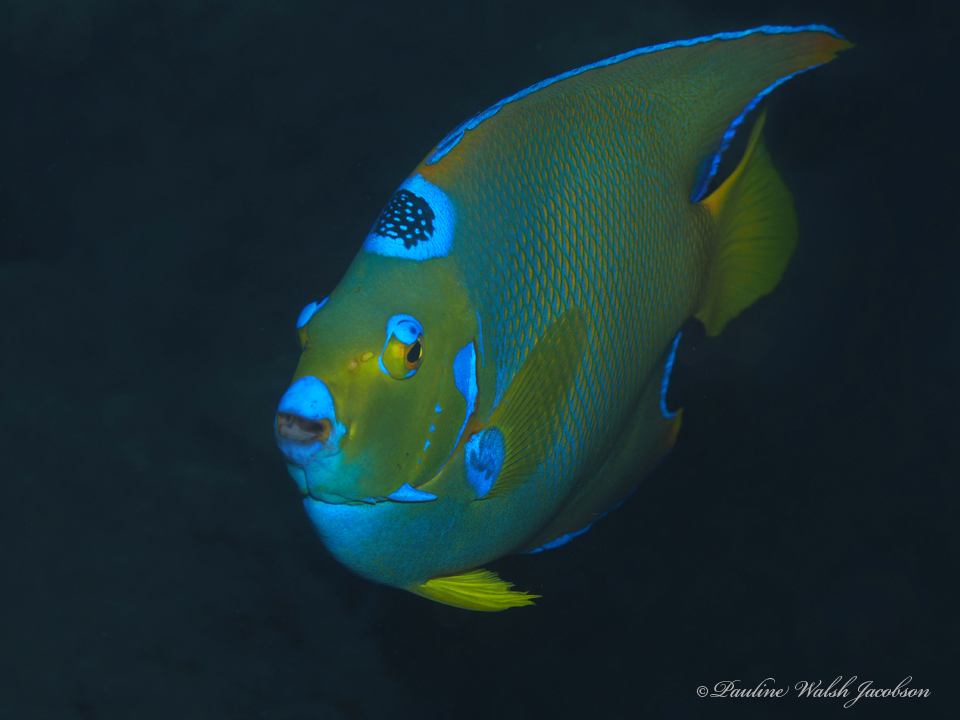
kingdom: Animalia
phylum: Chordata
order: Perciformes
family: Pomacanthidae
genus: Holacanthus
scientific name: Holacanthus ciliaris
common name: Queen angelfish
